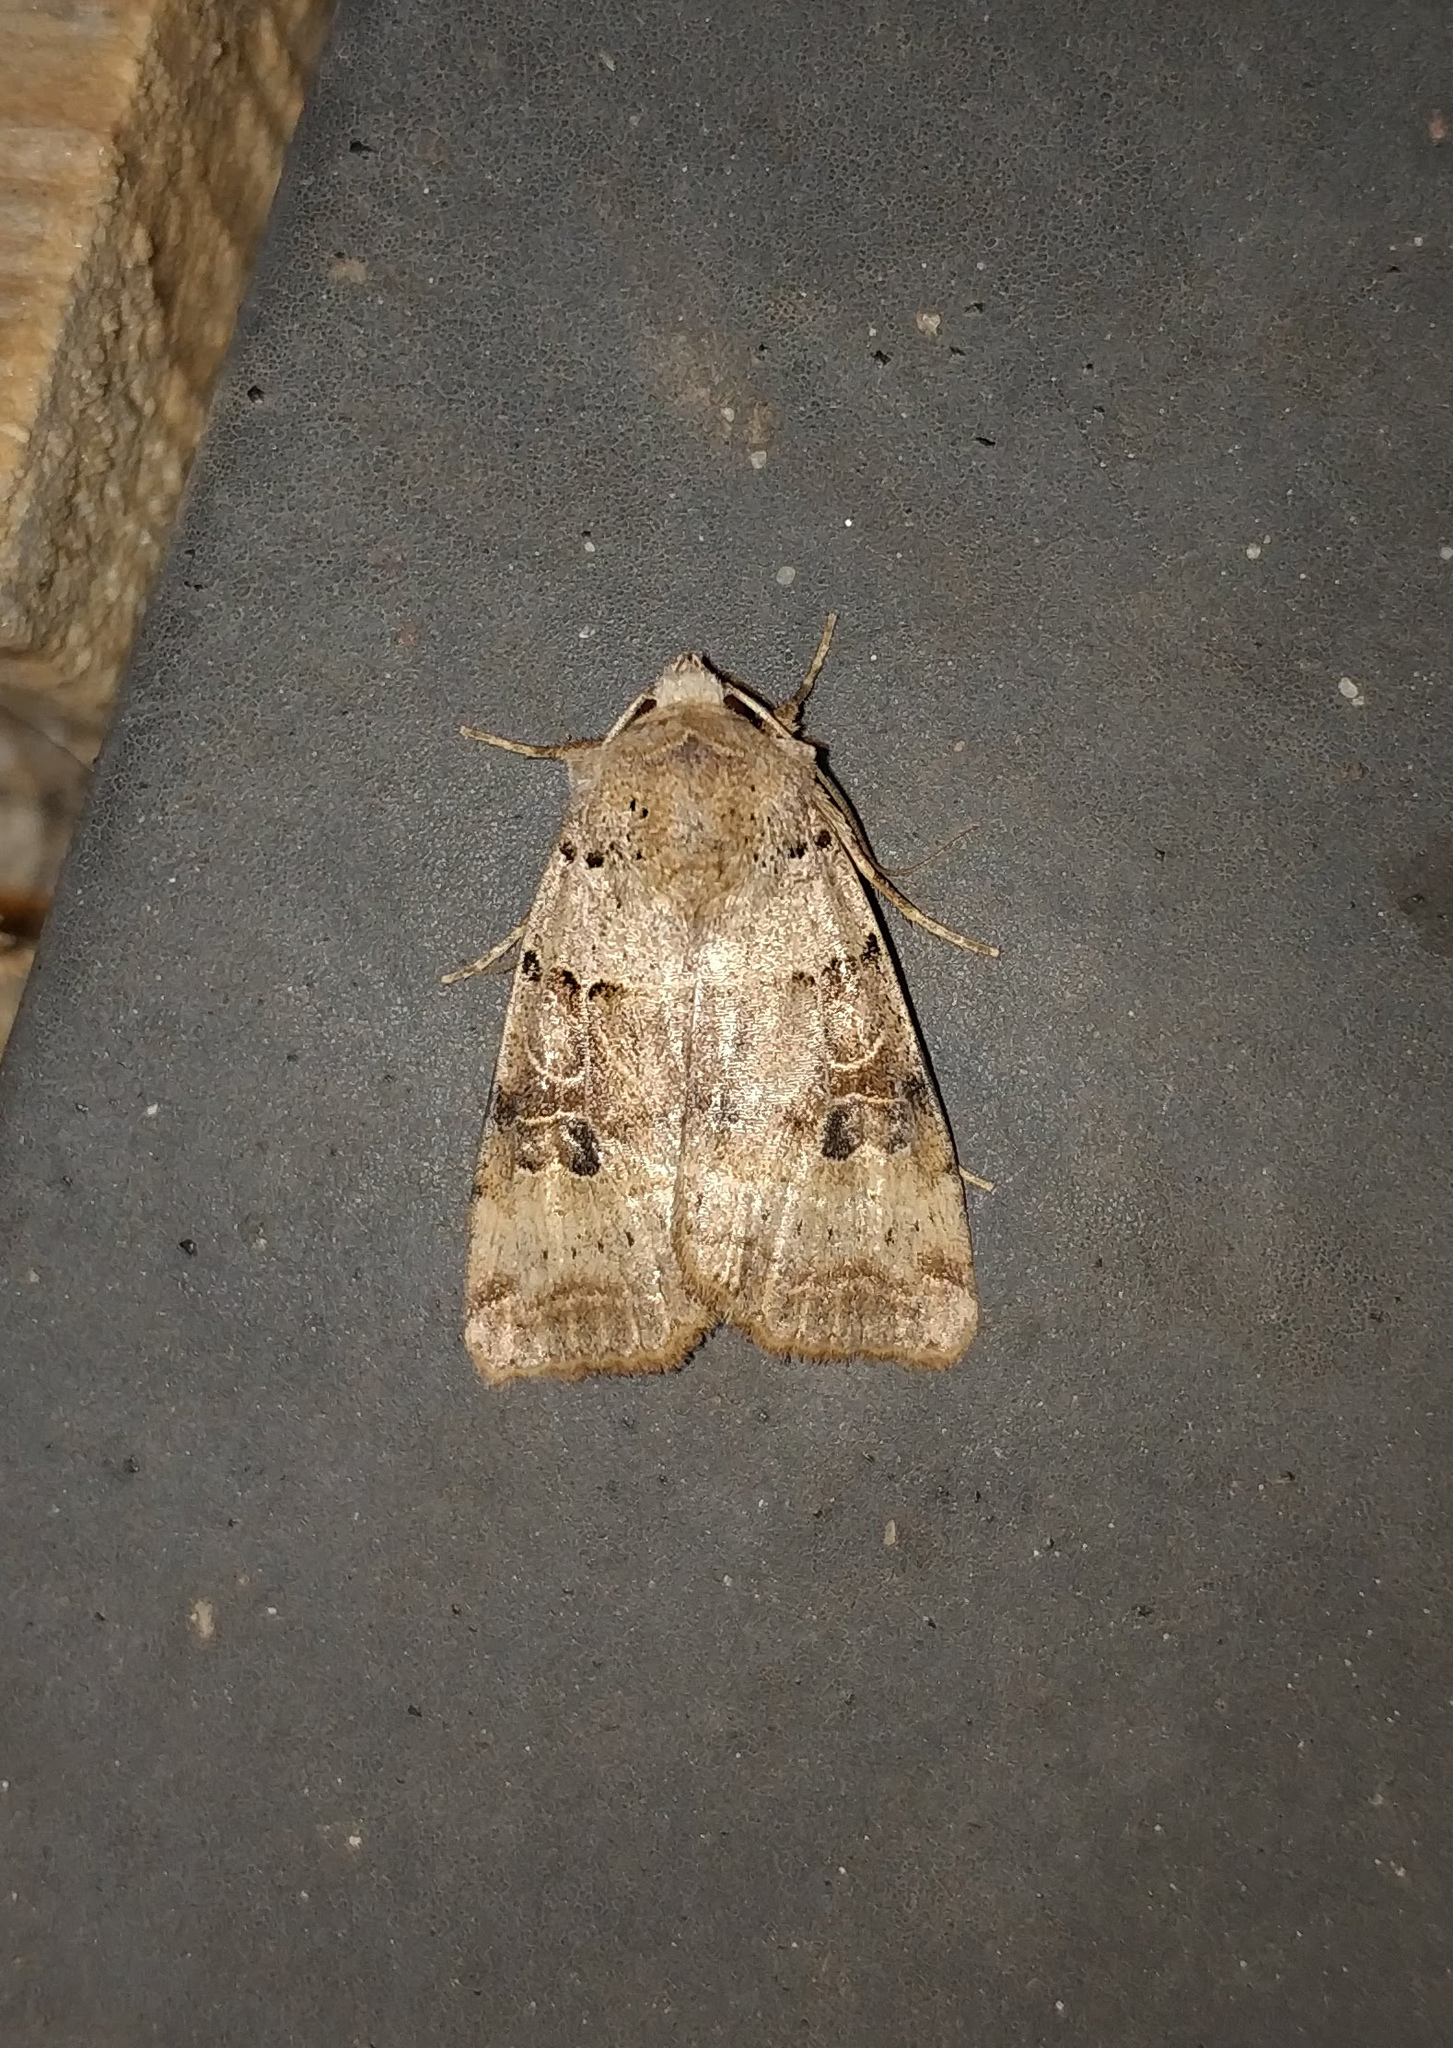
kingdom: Animalia
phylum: Arthropoda
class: Insecta
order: Lepidoptera
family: Noctuidae
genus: Eugnorisma
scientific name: Eugnorisma depuncta
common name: Plain clay
